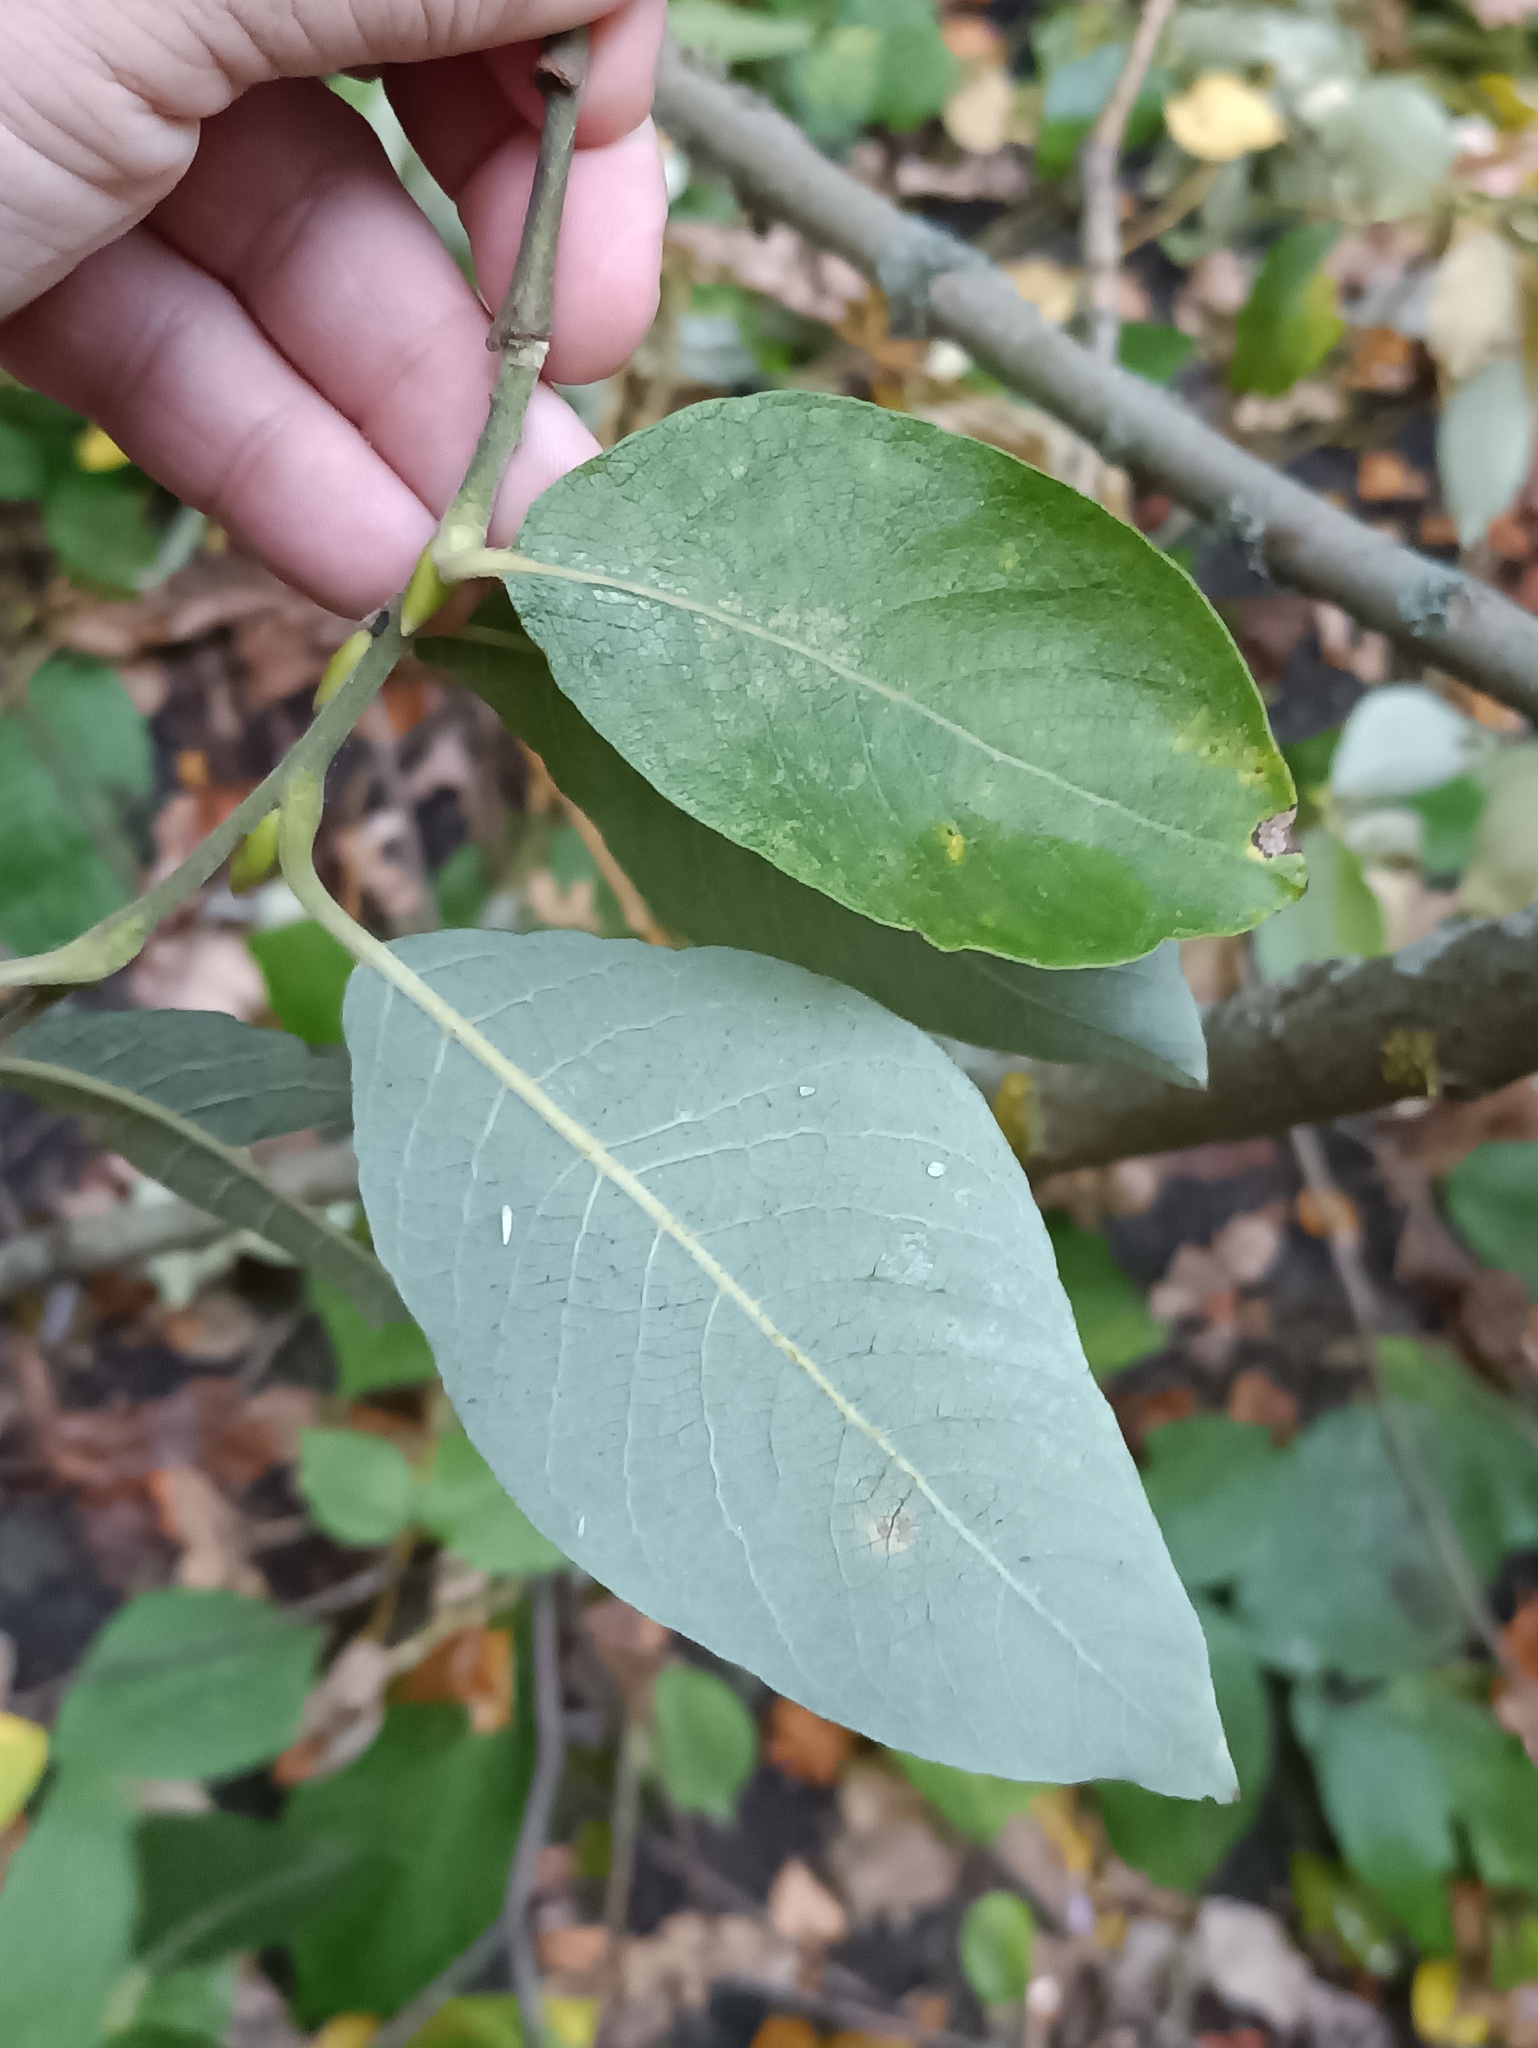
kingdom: Plantae
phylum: Tracheophyta
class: Magnoliopsida
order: Malpighiales
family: Salicaceae
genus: Salix
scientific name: Salix caprea
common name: Goat willow
